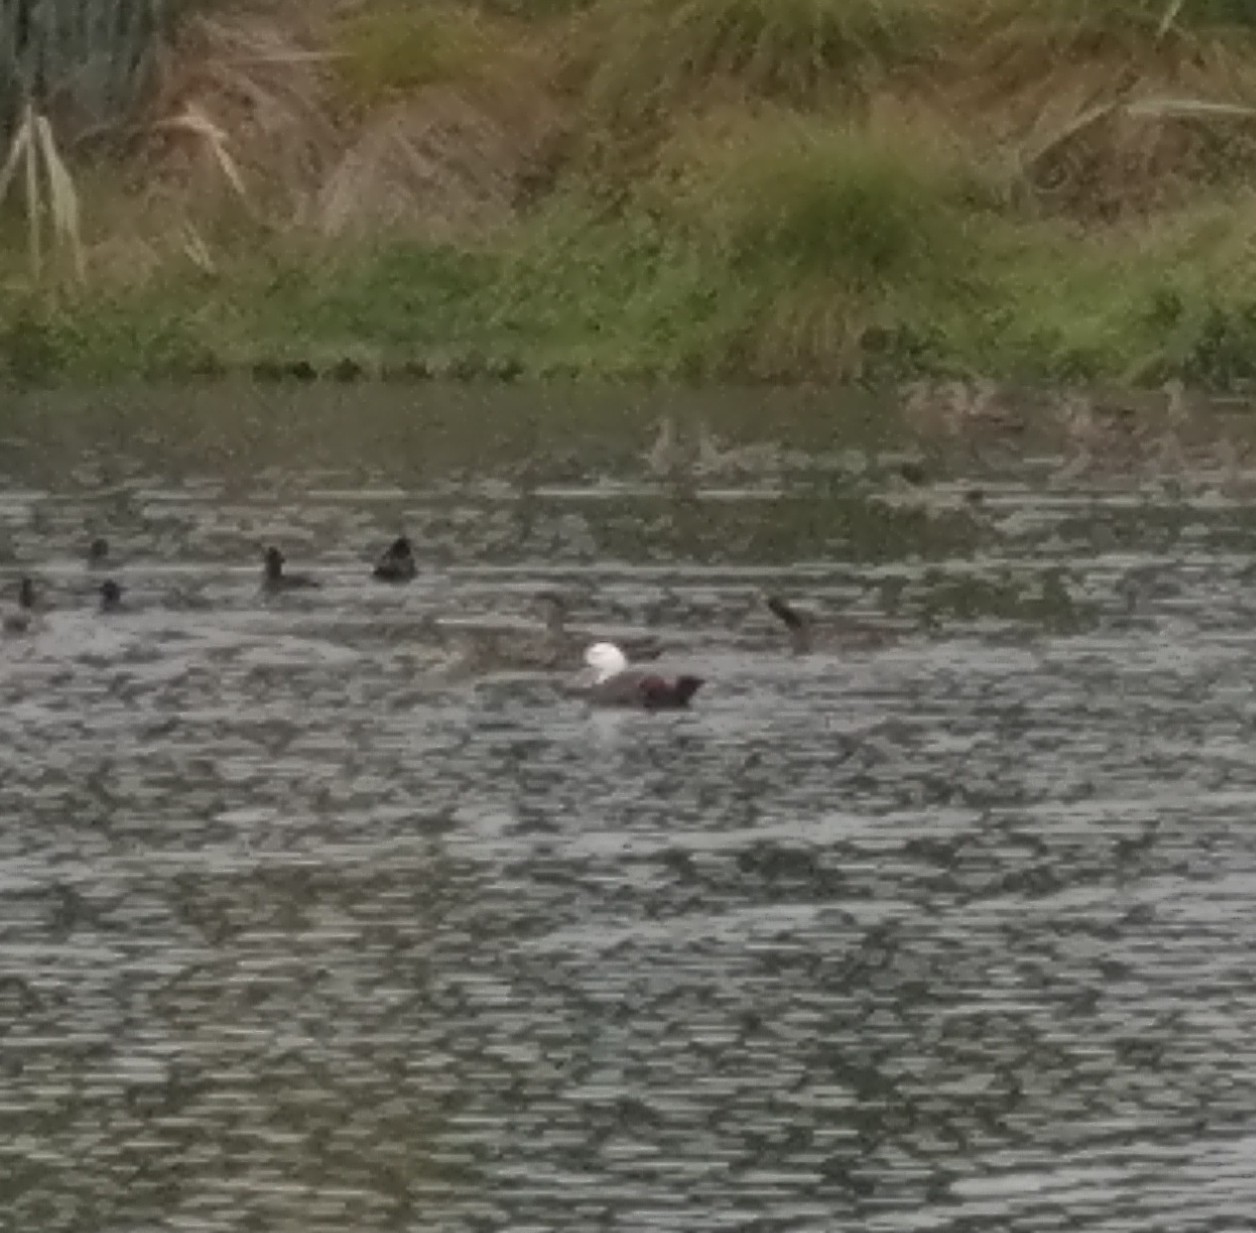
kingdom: Animalia
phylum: Chordata
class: Aves
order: Anseriformes
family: Anatidae
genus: Tadorna
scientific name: Tadorna variegata
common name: Paradise shelduck
